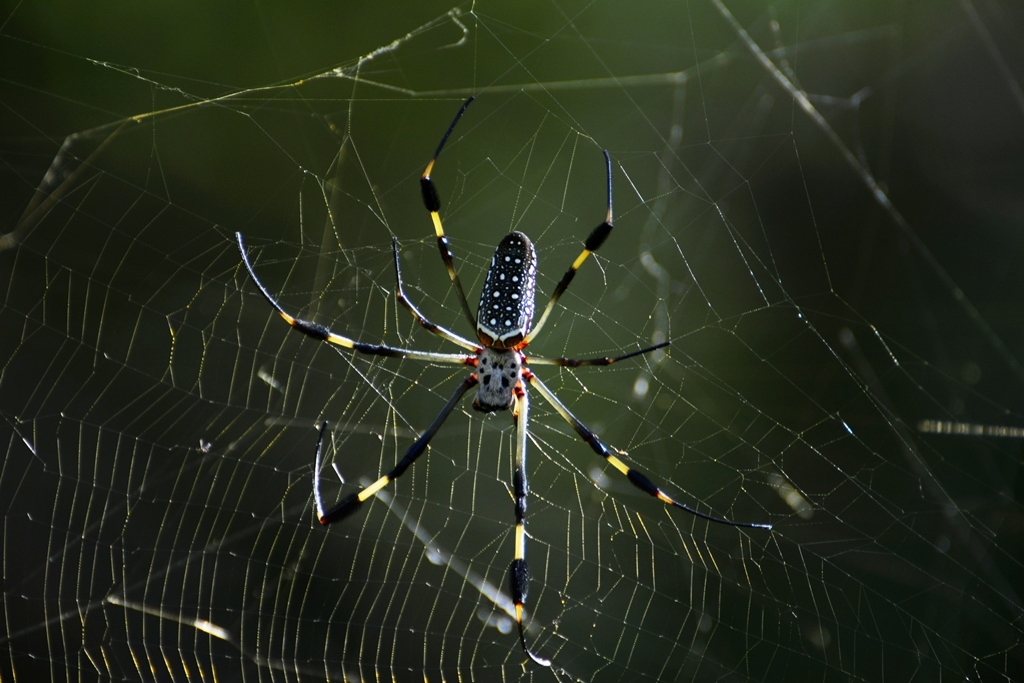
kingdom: Animalia
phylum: Arthropoda
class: Arachnida
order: Araneae
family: Araneidae
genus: Trichonephila
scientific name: Trichonephila clavipes
